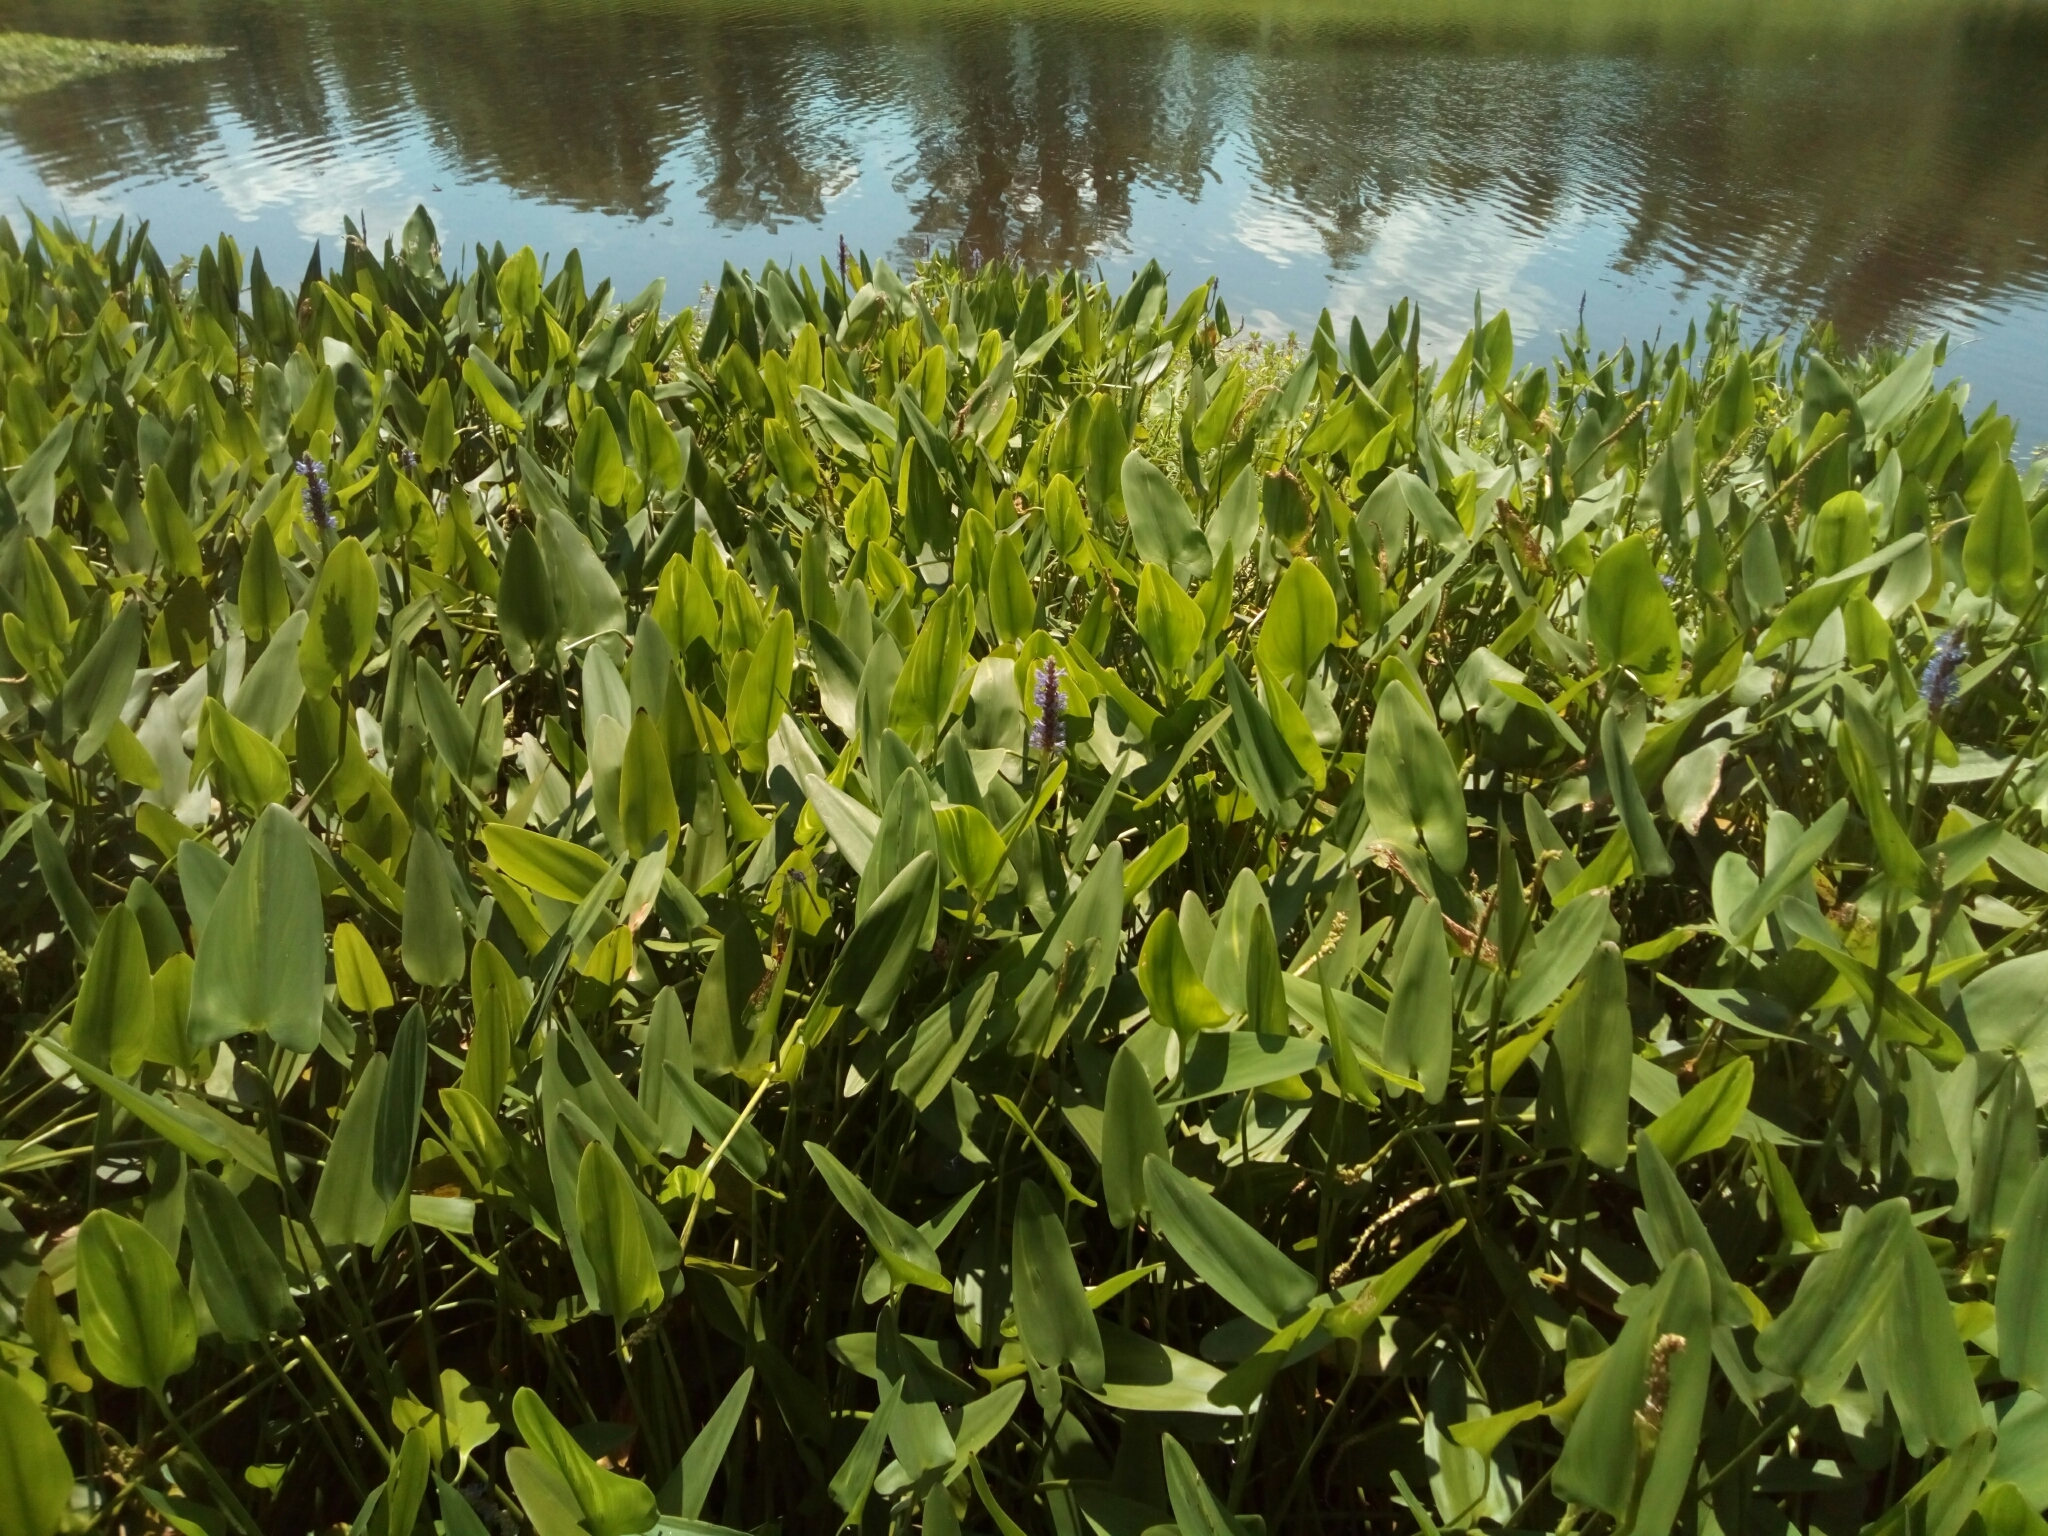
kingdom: Plantae
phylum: Tracheophyta
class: Liliopsida
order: Commelinales
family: Pontederiaceae
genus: Pontederia
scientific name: Pontederia cordata
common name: Pickerelweed
